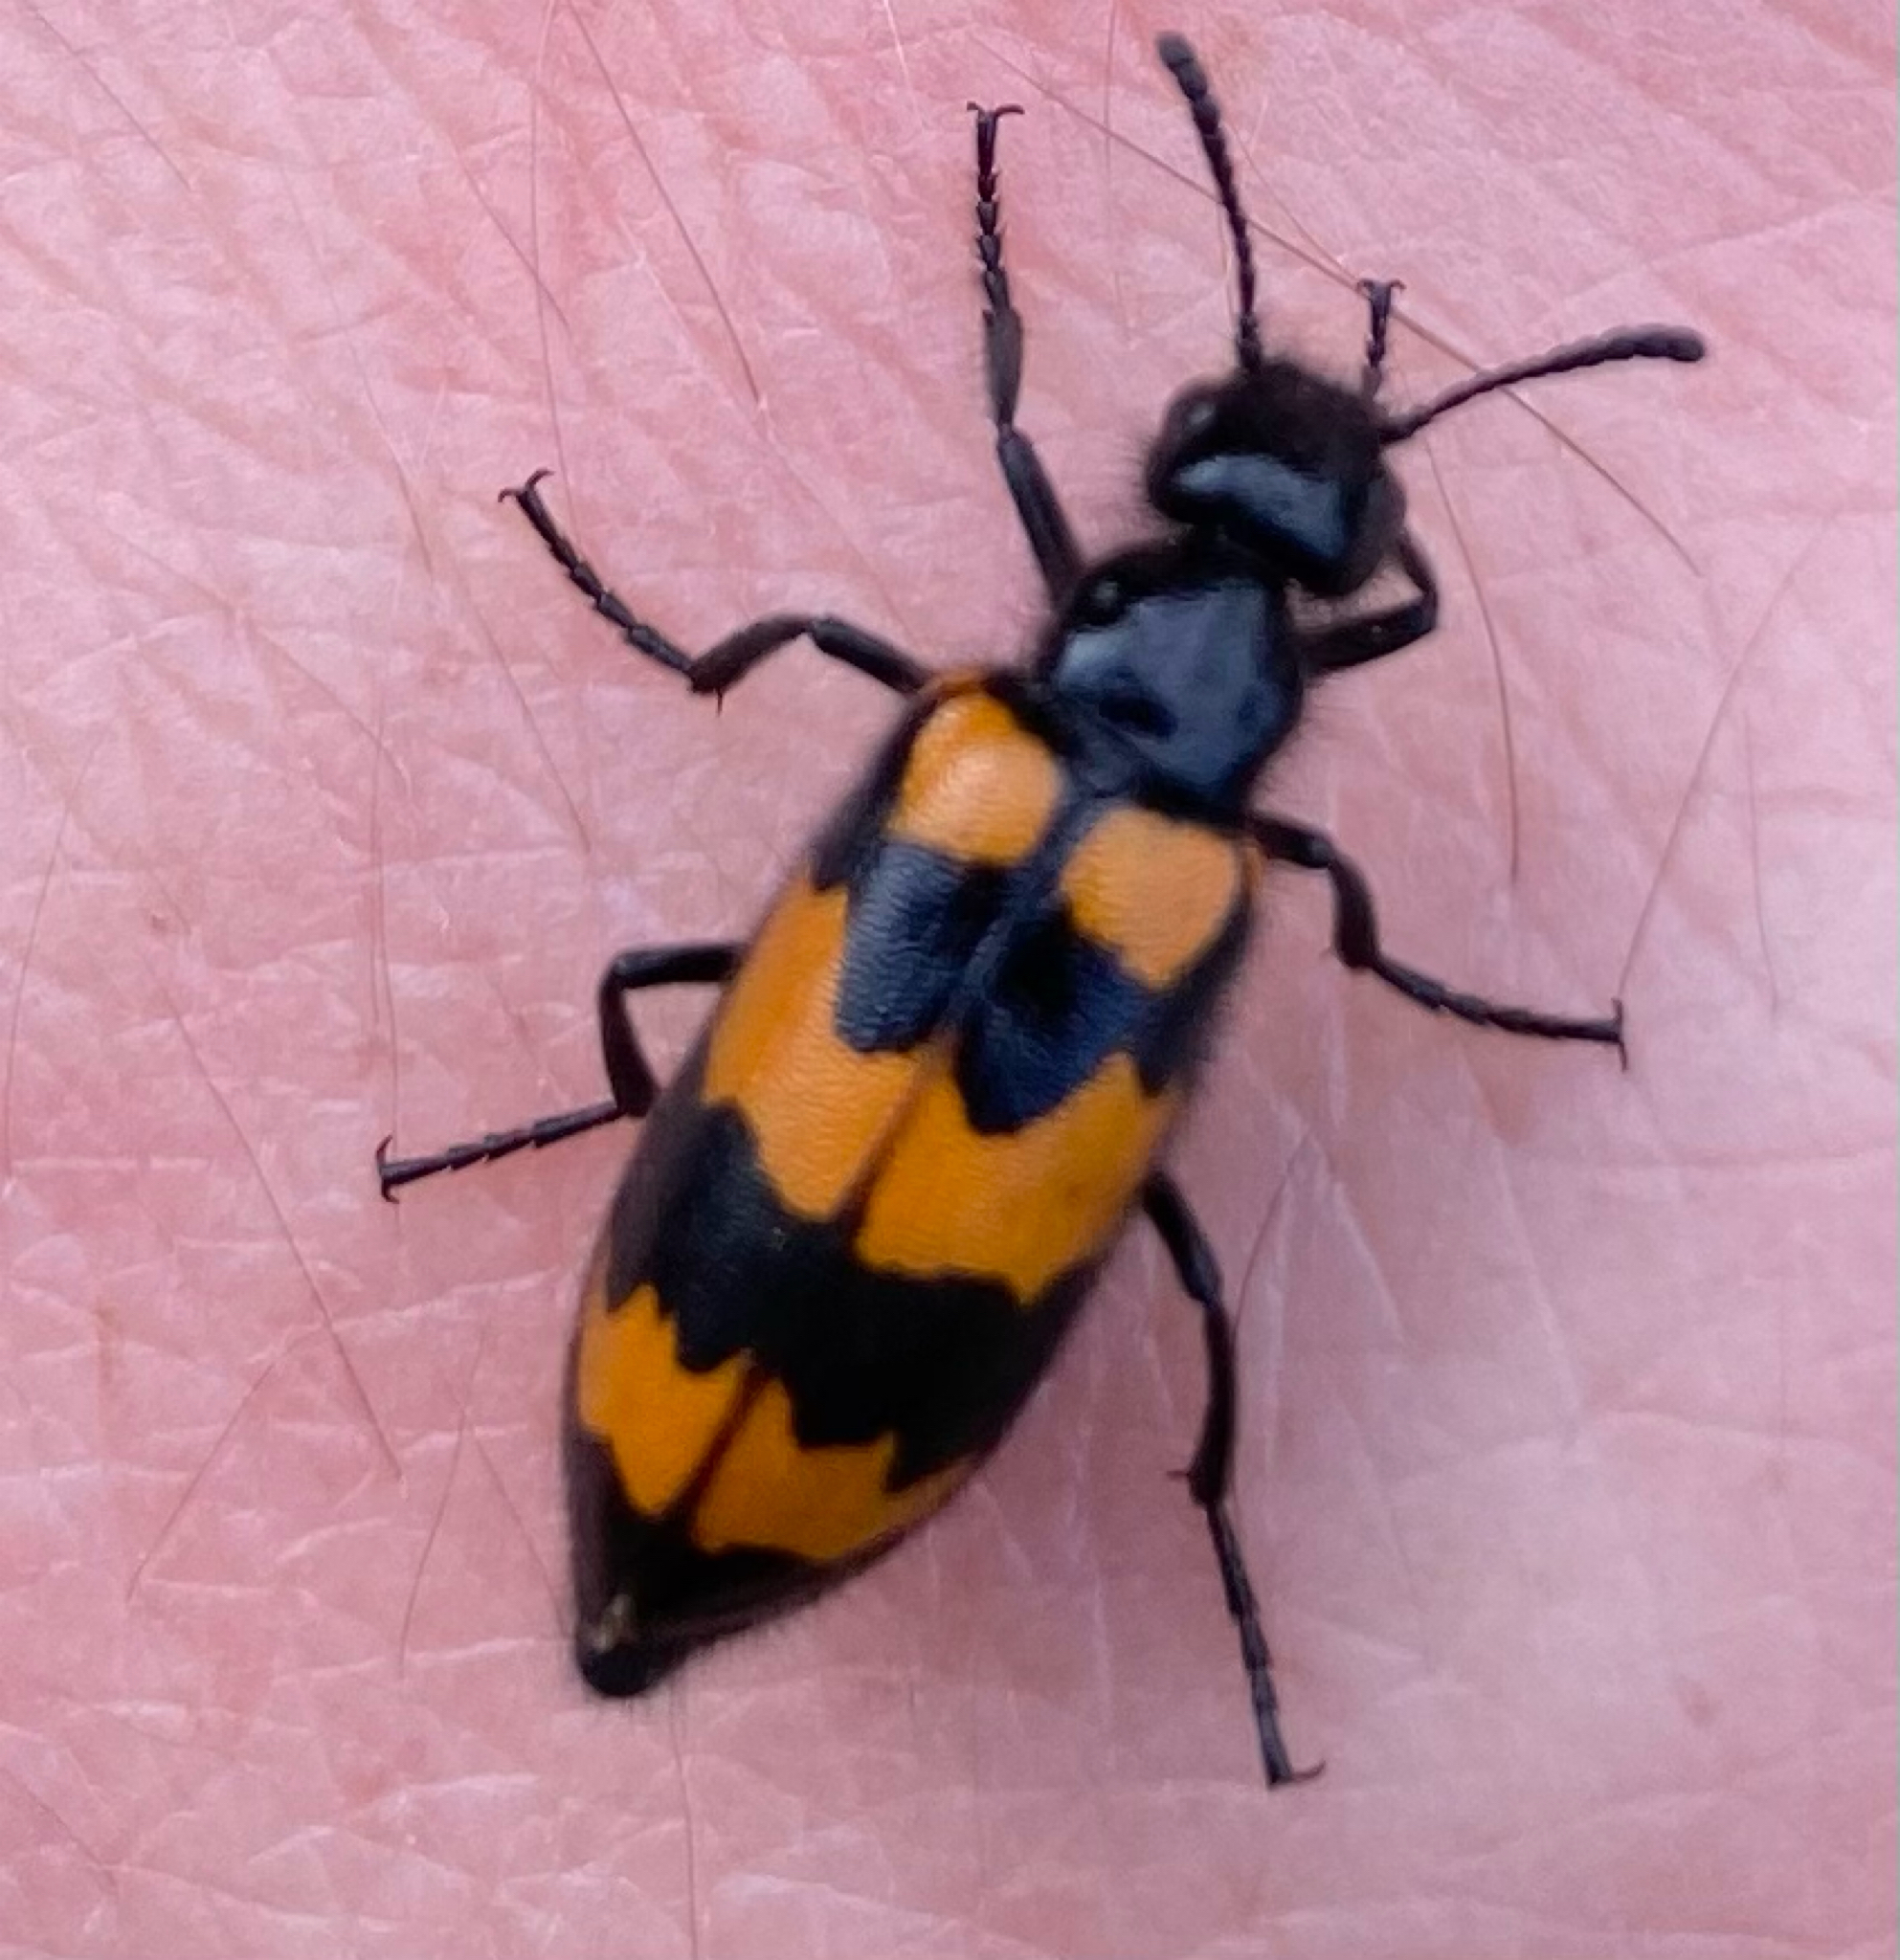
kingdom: Animalia
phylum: Arthropoda
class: Insecta
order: Coleoptera
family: Meloidae
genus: Mylabris
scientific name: Mylabris variabilis
